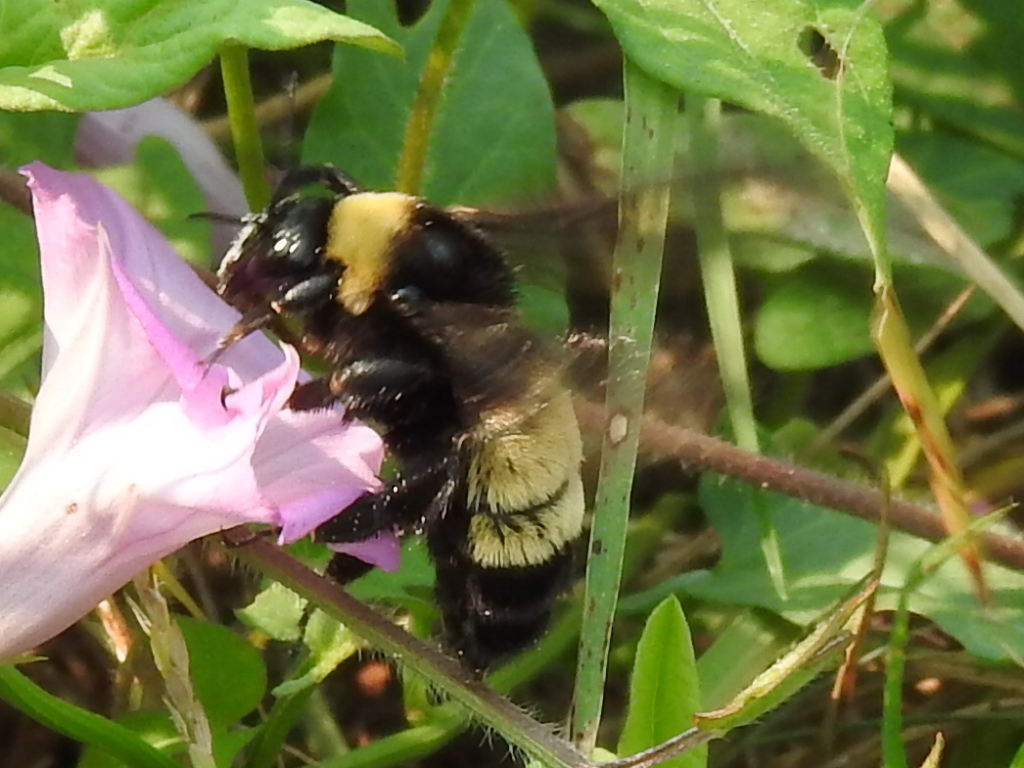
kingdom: Animalia
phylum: Arthropoda
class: Insecta
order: Hymenoptera
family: Apidae
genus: Bombus
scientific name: Bombus pensylvanicus
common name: Bumble bee
